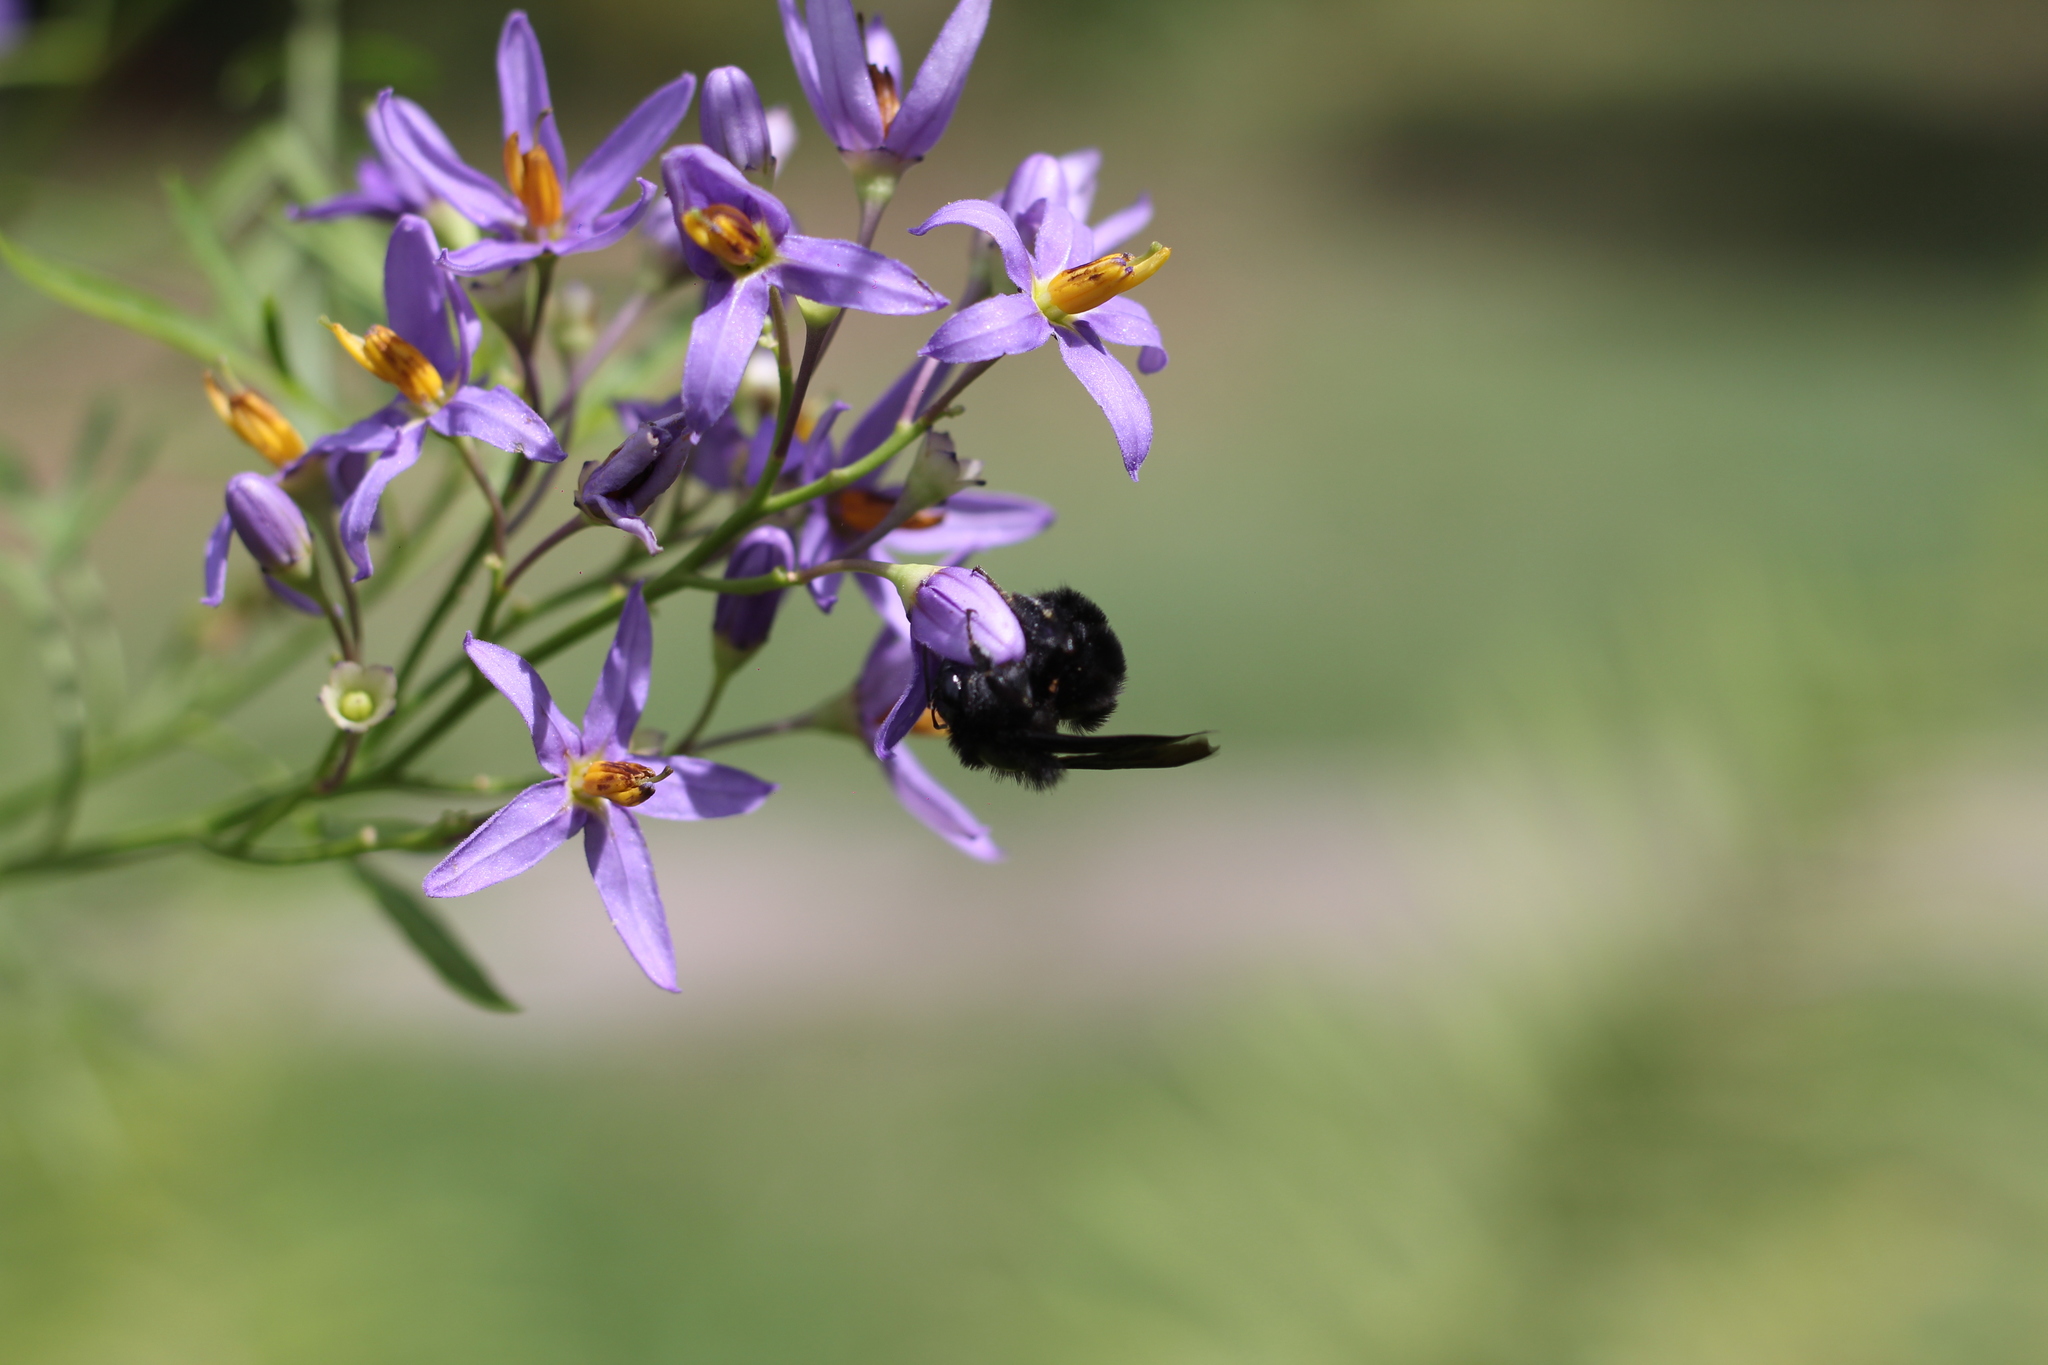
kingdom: Animalia
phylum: Arthropoda
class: Insecta
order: Hymenoptera
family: Apidae
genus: Bombus
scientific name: Bombus pauloensis
